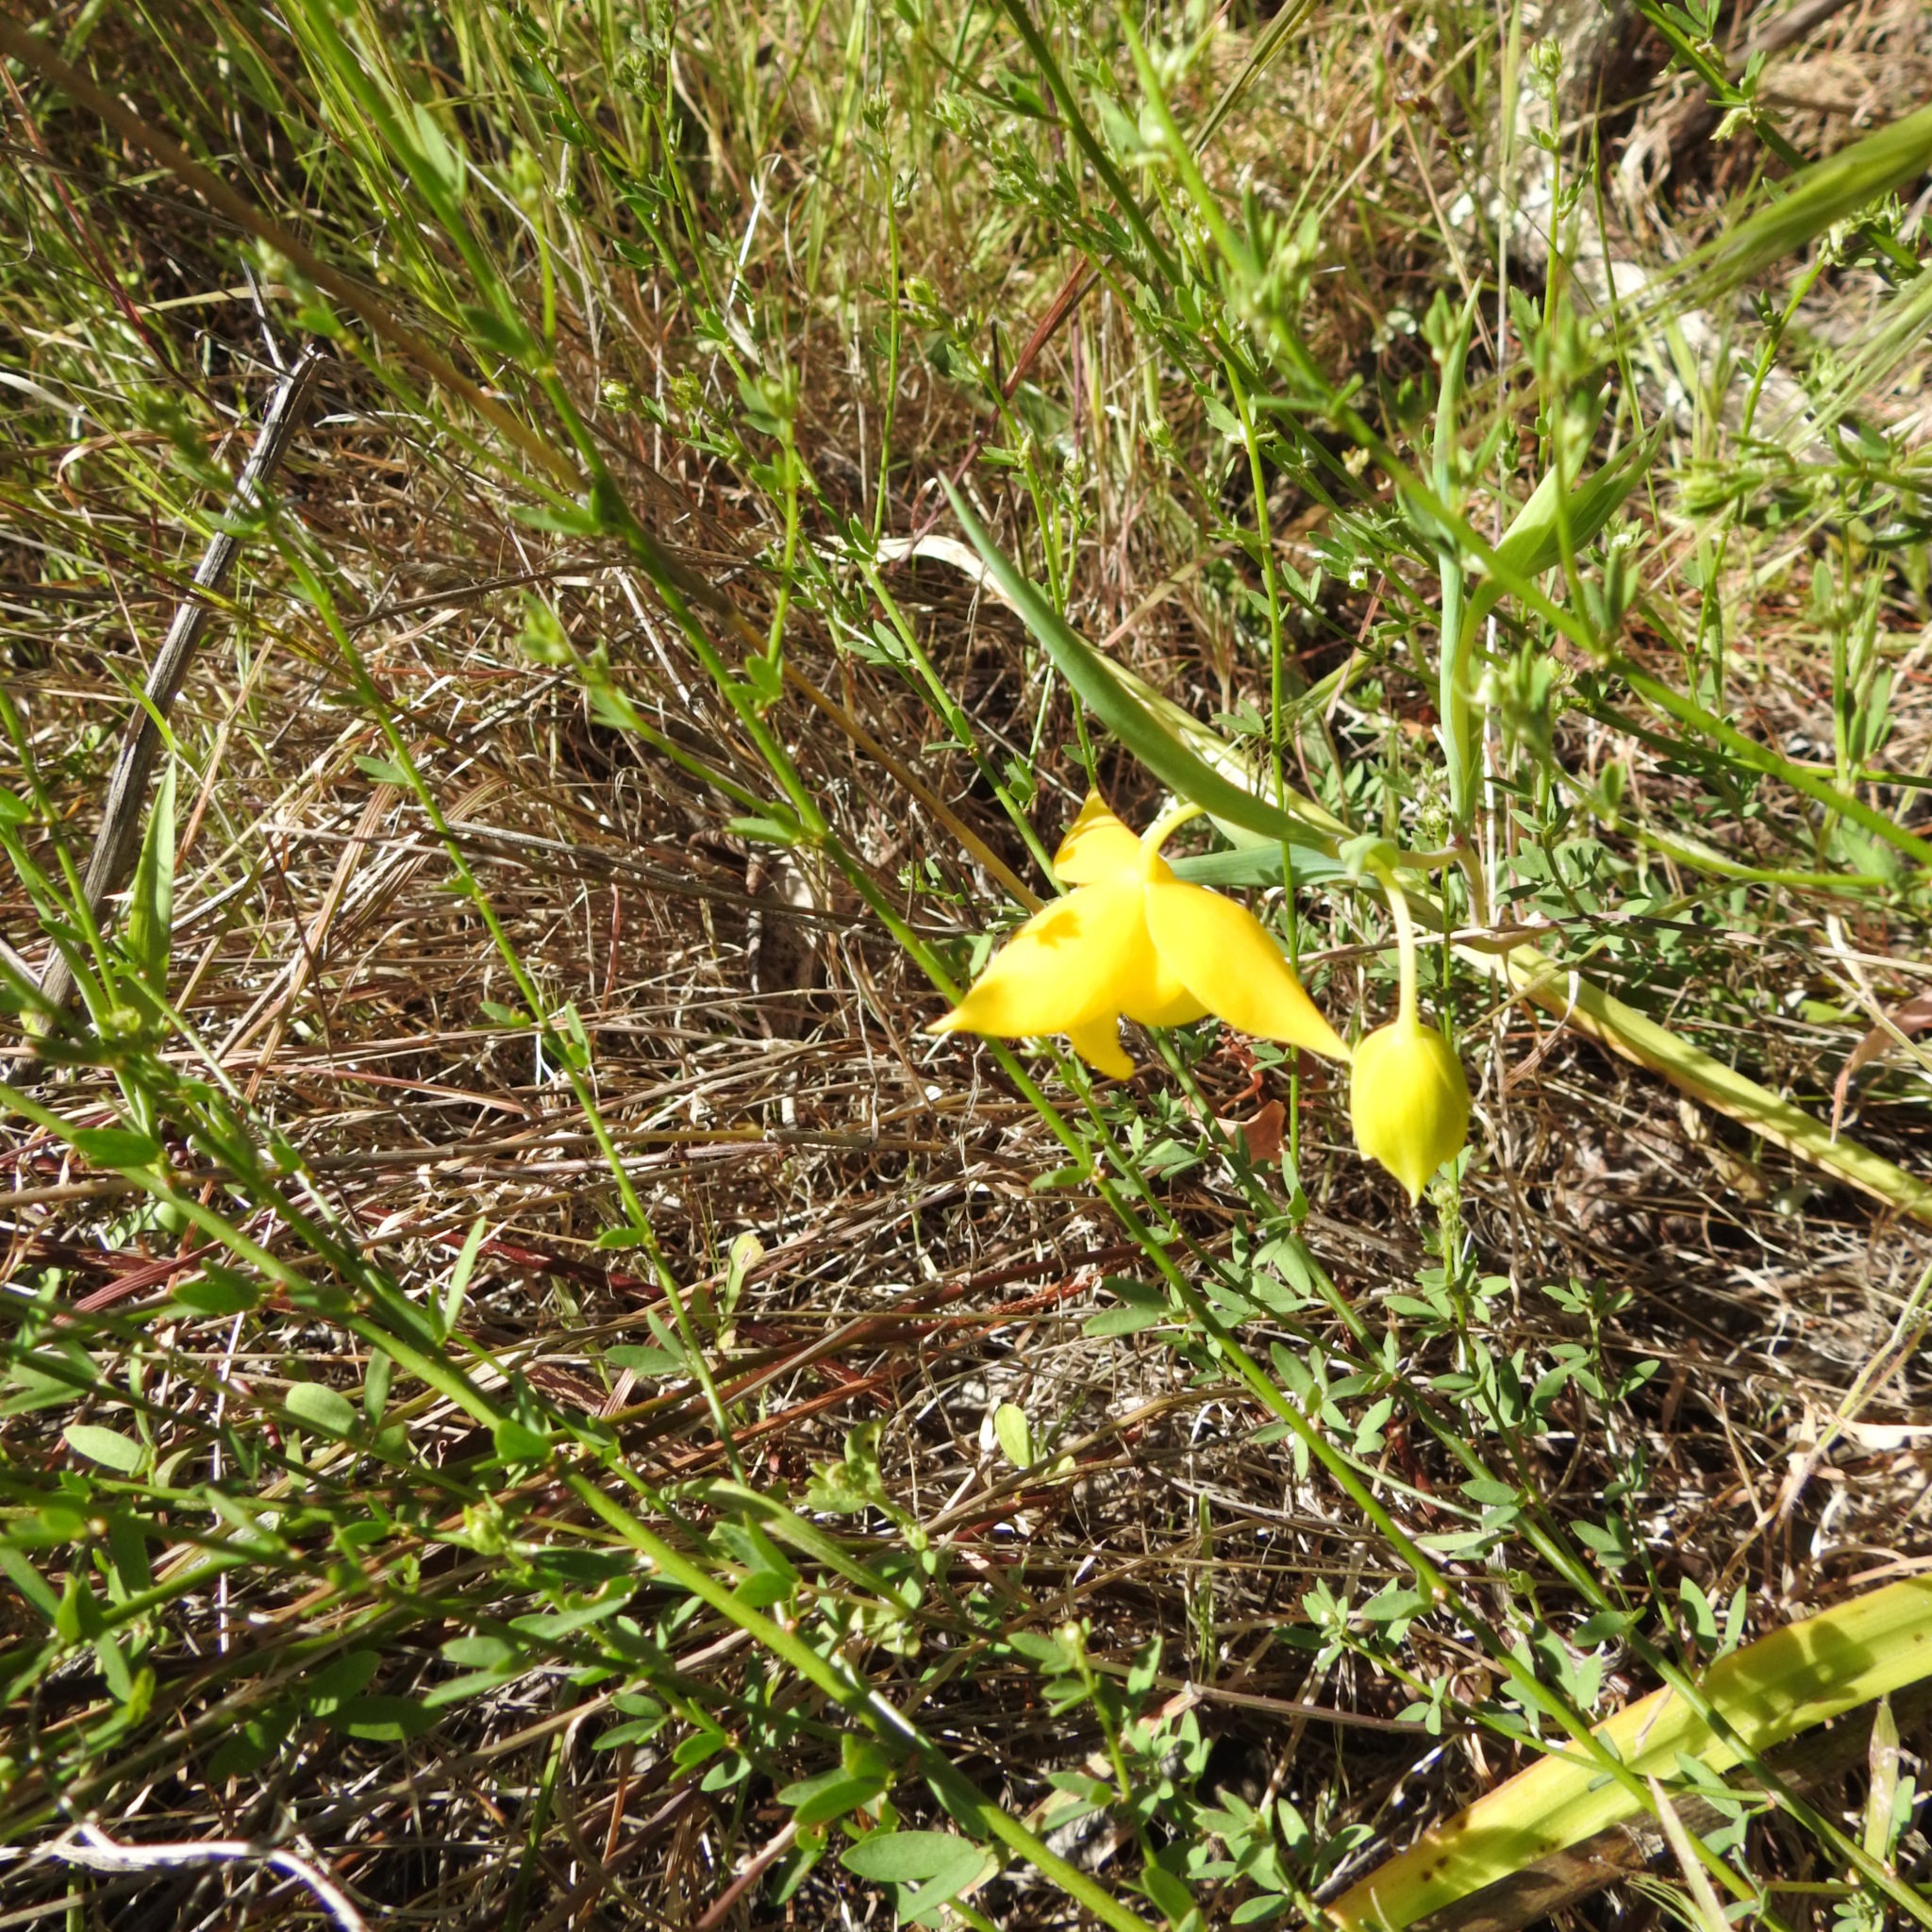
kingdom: Plantae
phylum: Tracheophyta
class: Liliopsida
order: Liliales
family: Liliaceae
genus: Calochortus
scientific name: Calochortus amabilis
